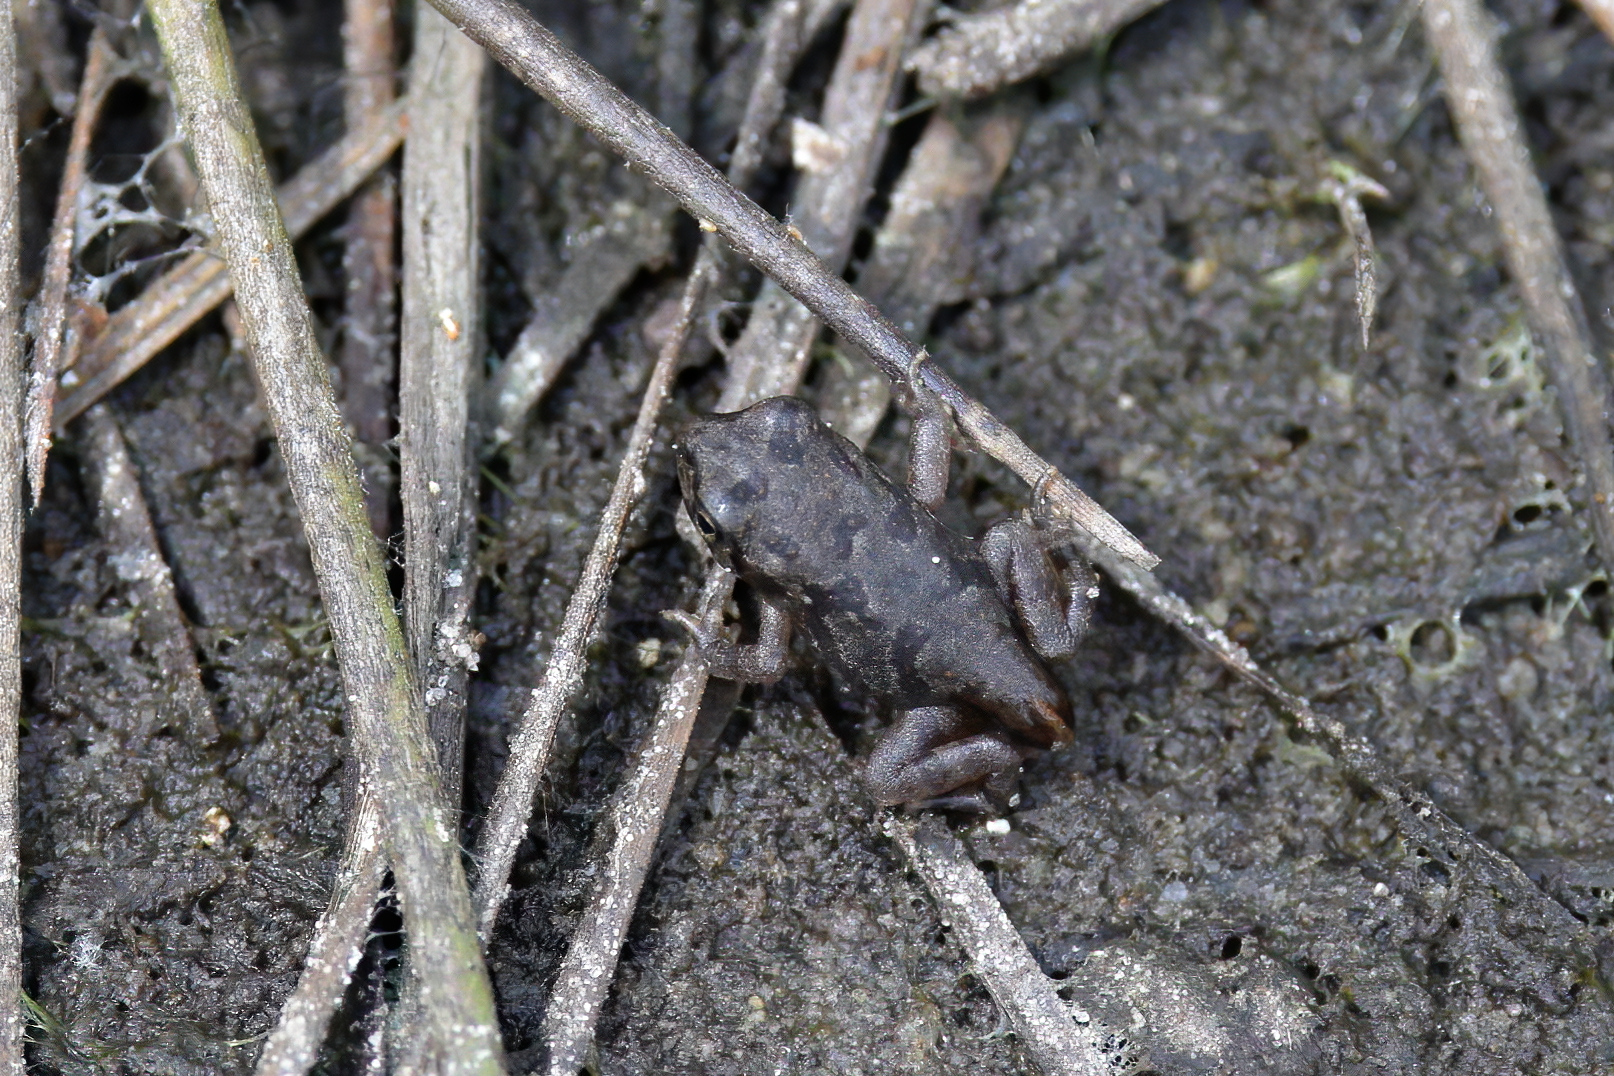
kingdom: Animalia
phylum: Chordata
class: Amphibia
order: Anura
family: Bufonidae
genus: Anaxyrus
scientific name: Anaxyrus terrestris
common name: Southern toad
